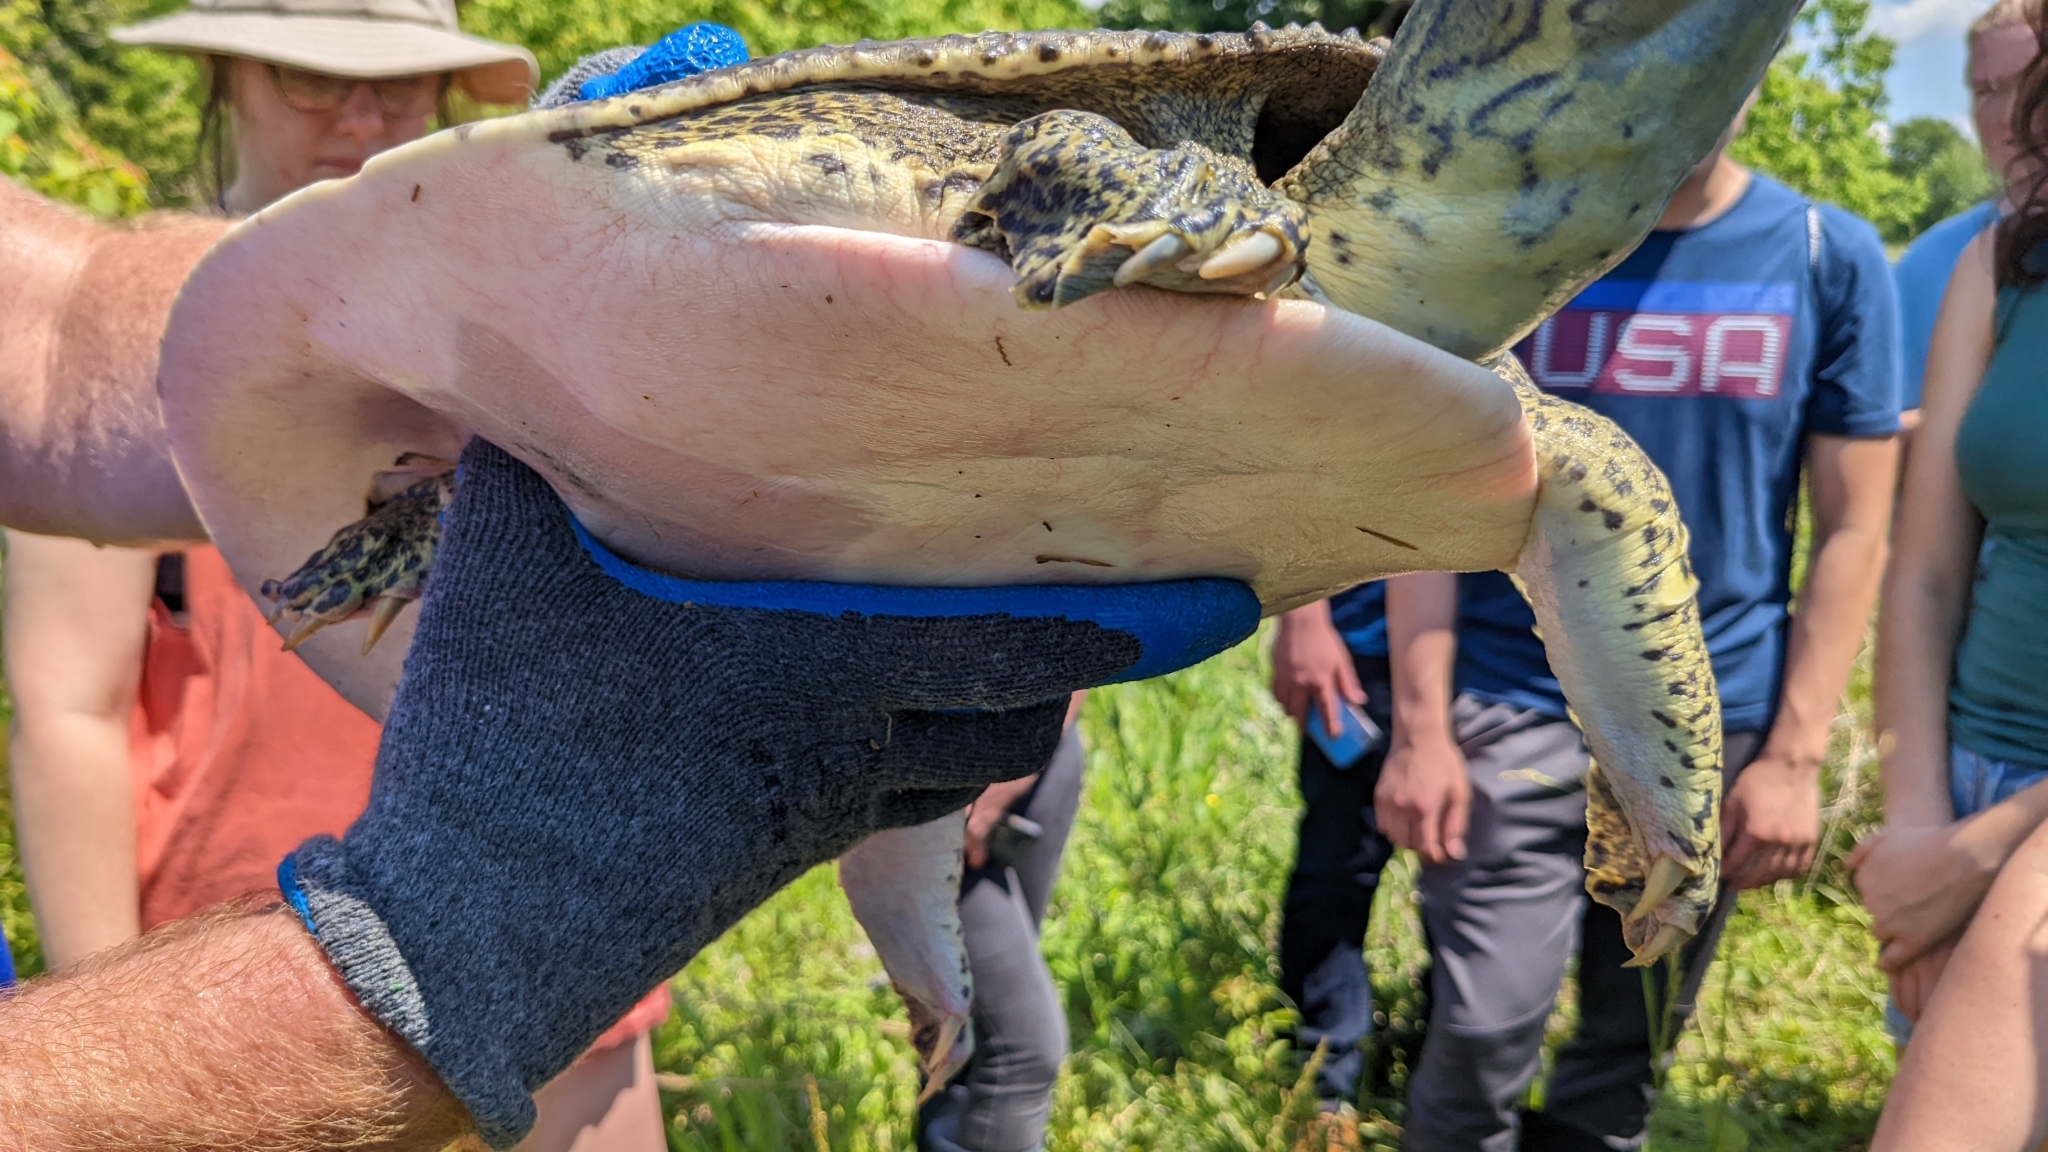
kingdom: Animalia
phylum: Chordata
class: Testudines
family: Trionychidae
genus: Apalone
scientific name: Apalone spinifera
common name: Spiny softshell turtle
